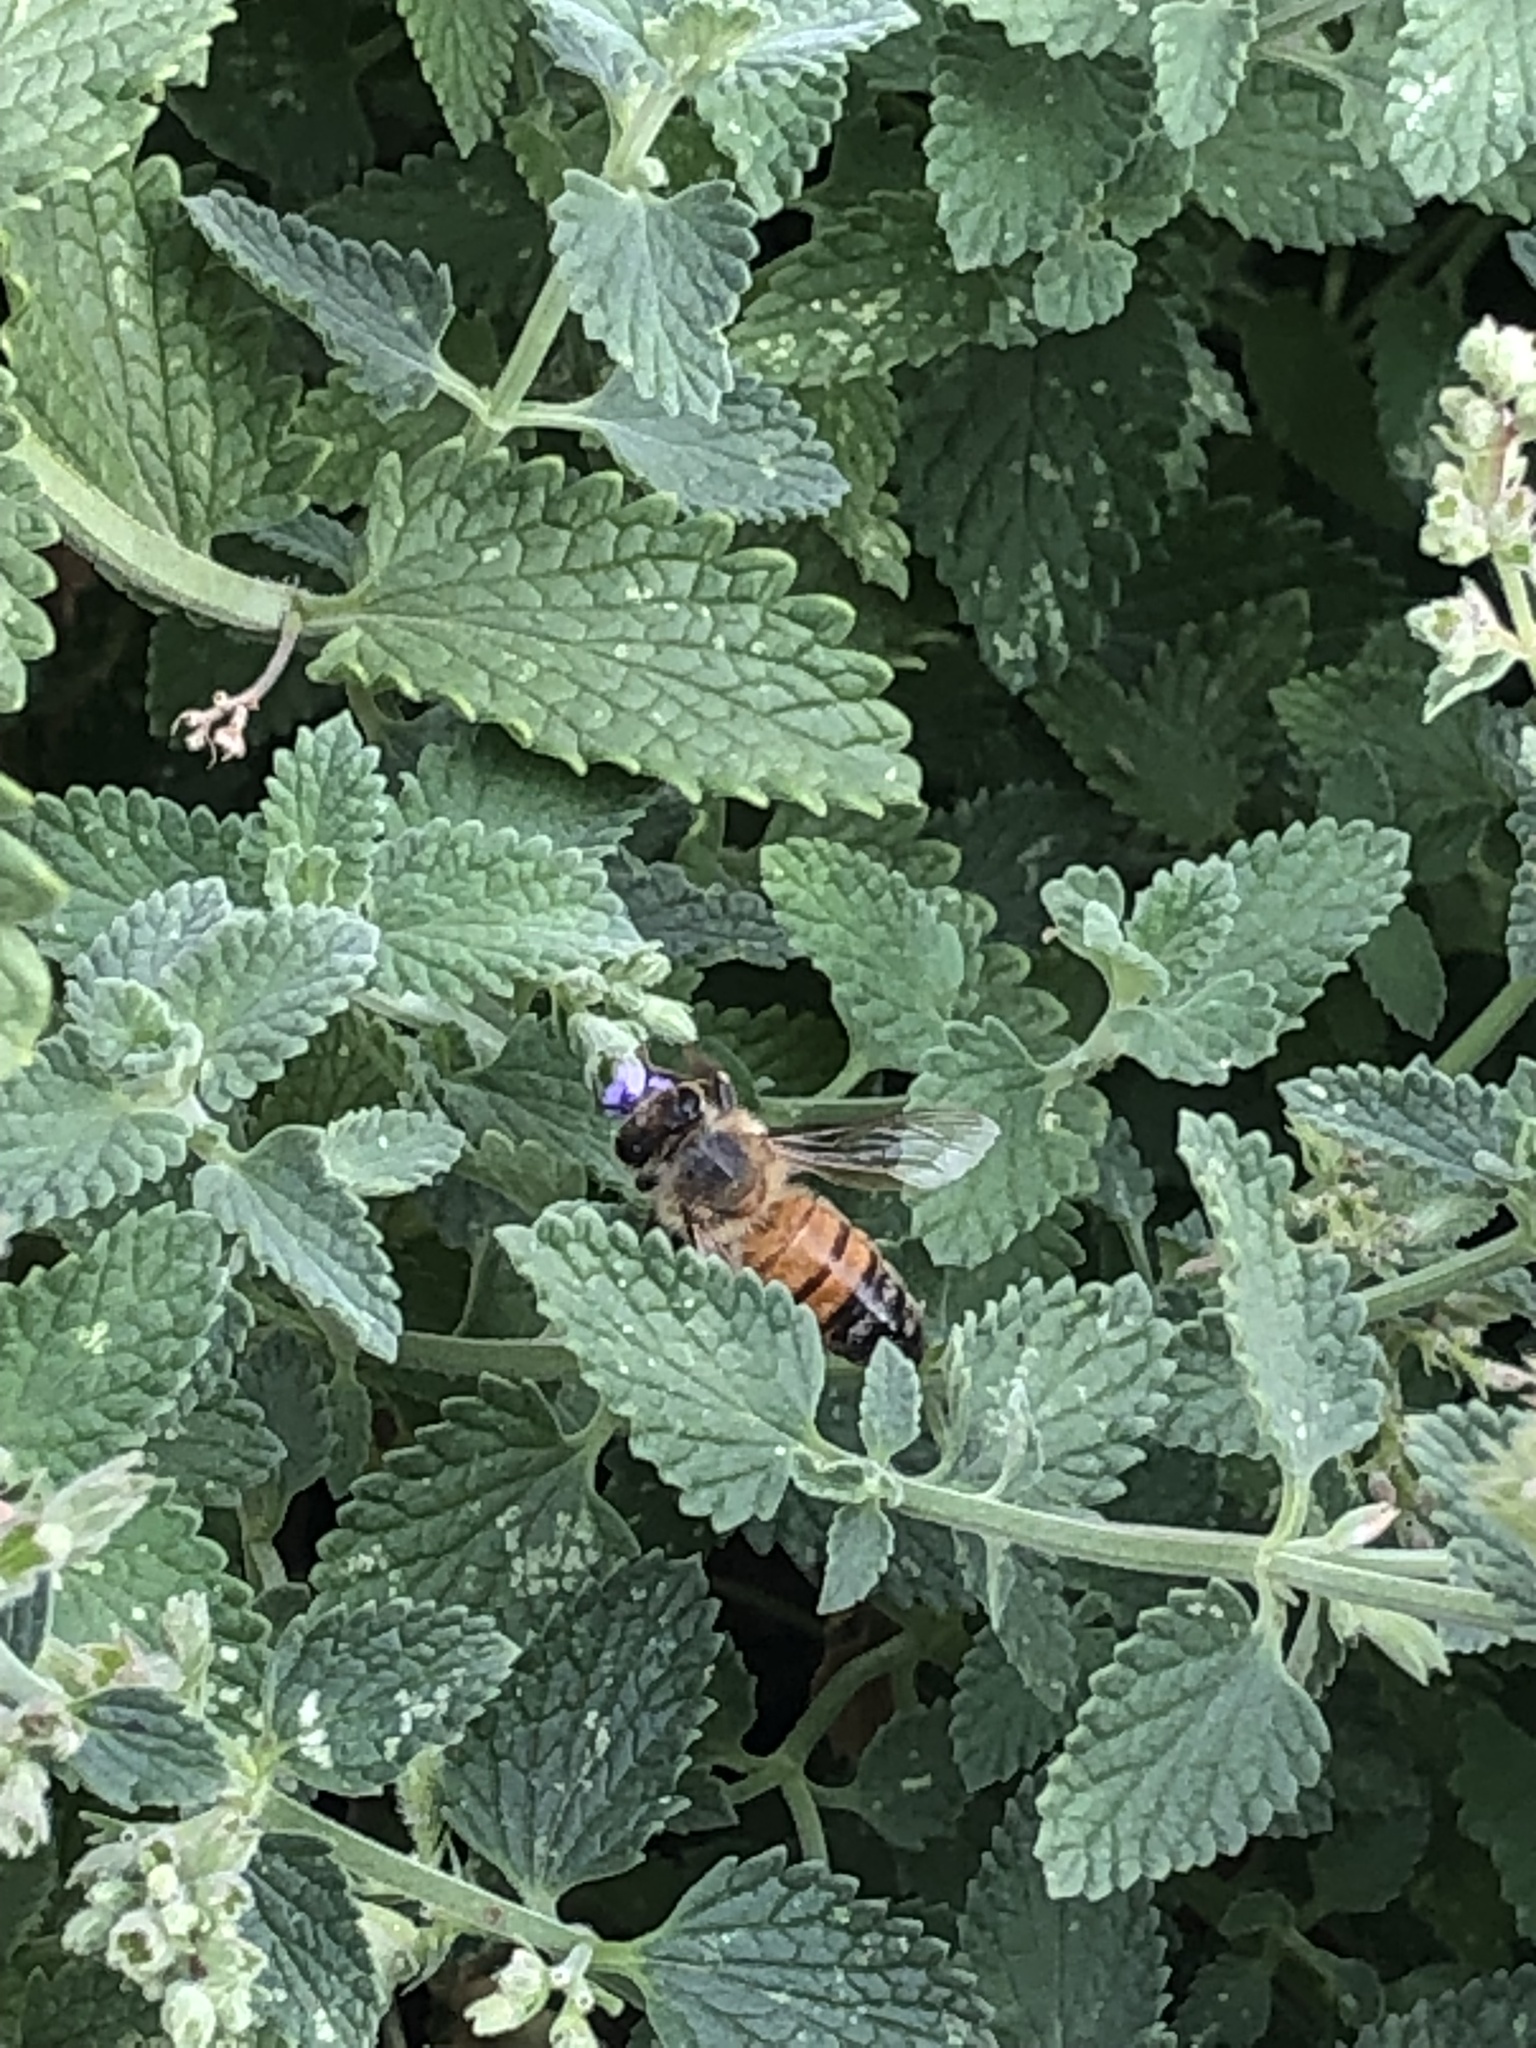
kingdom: Animalia
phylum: Arthropoda
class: Insecta
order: Hymenoptera
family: Apidae
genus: Apis
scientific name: Apis mellifera
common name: Honey bee
